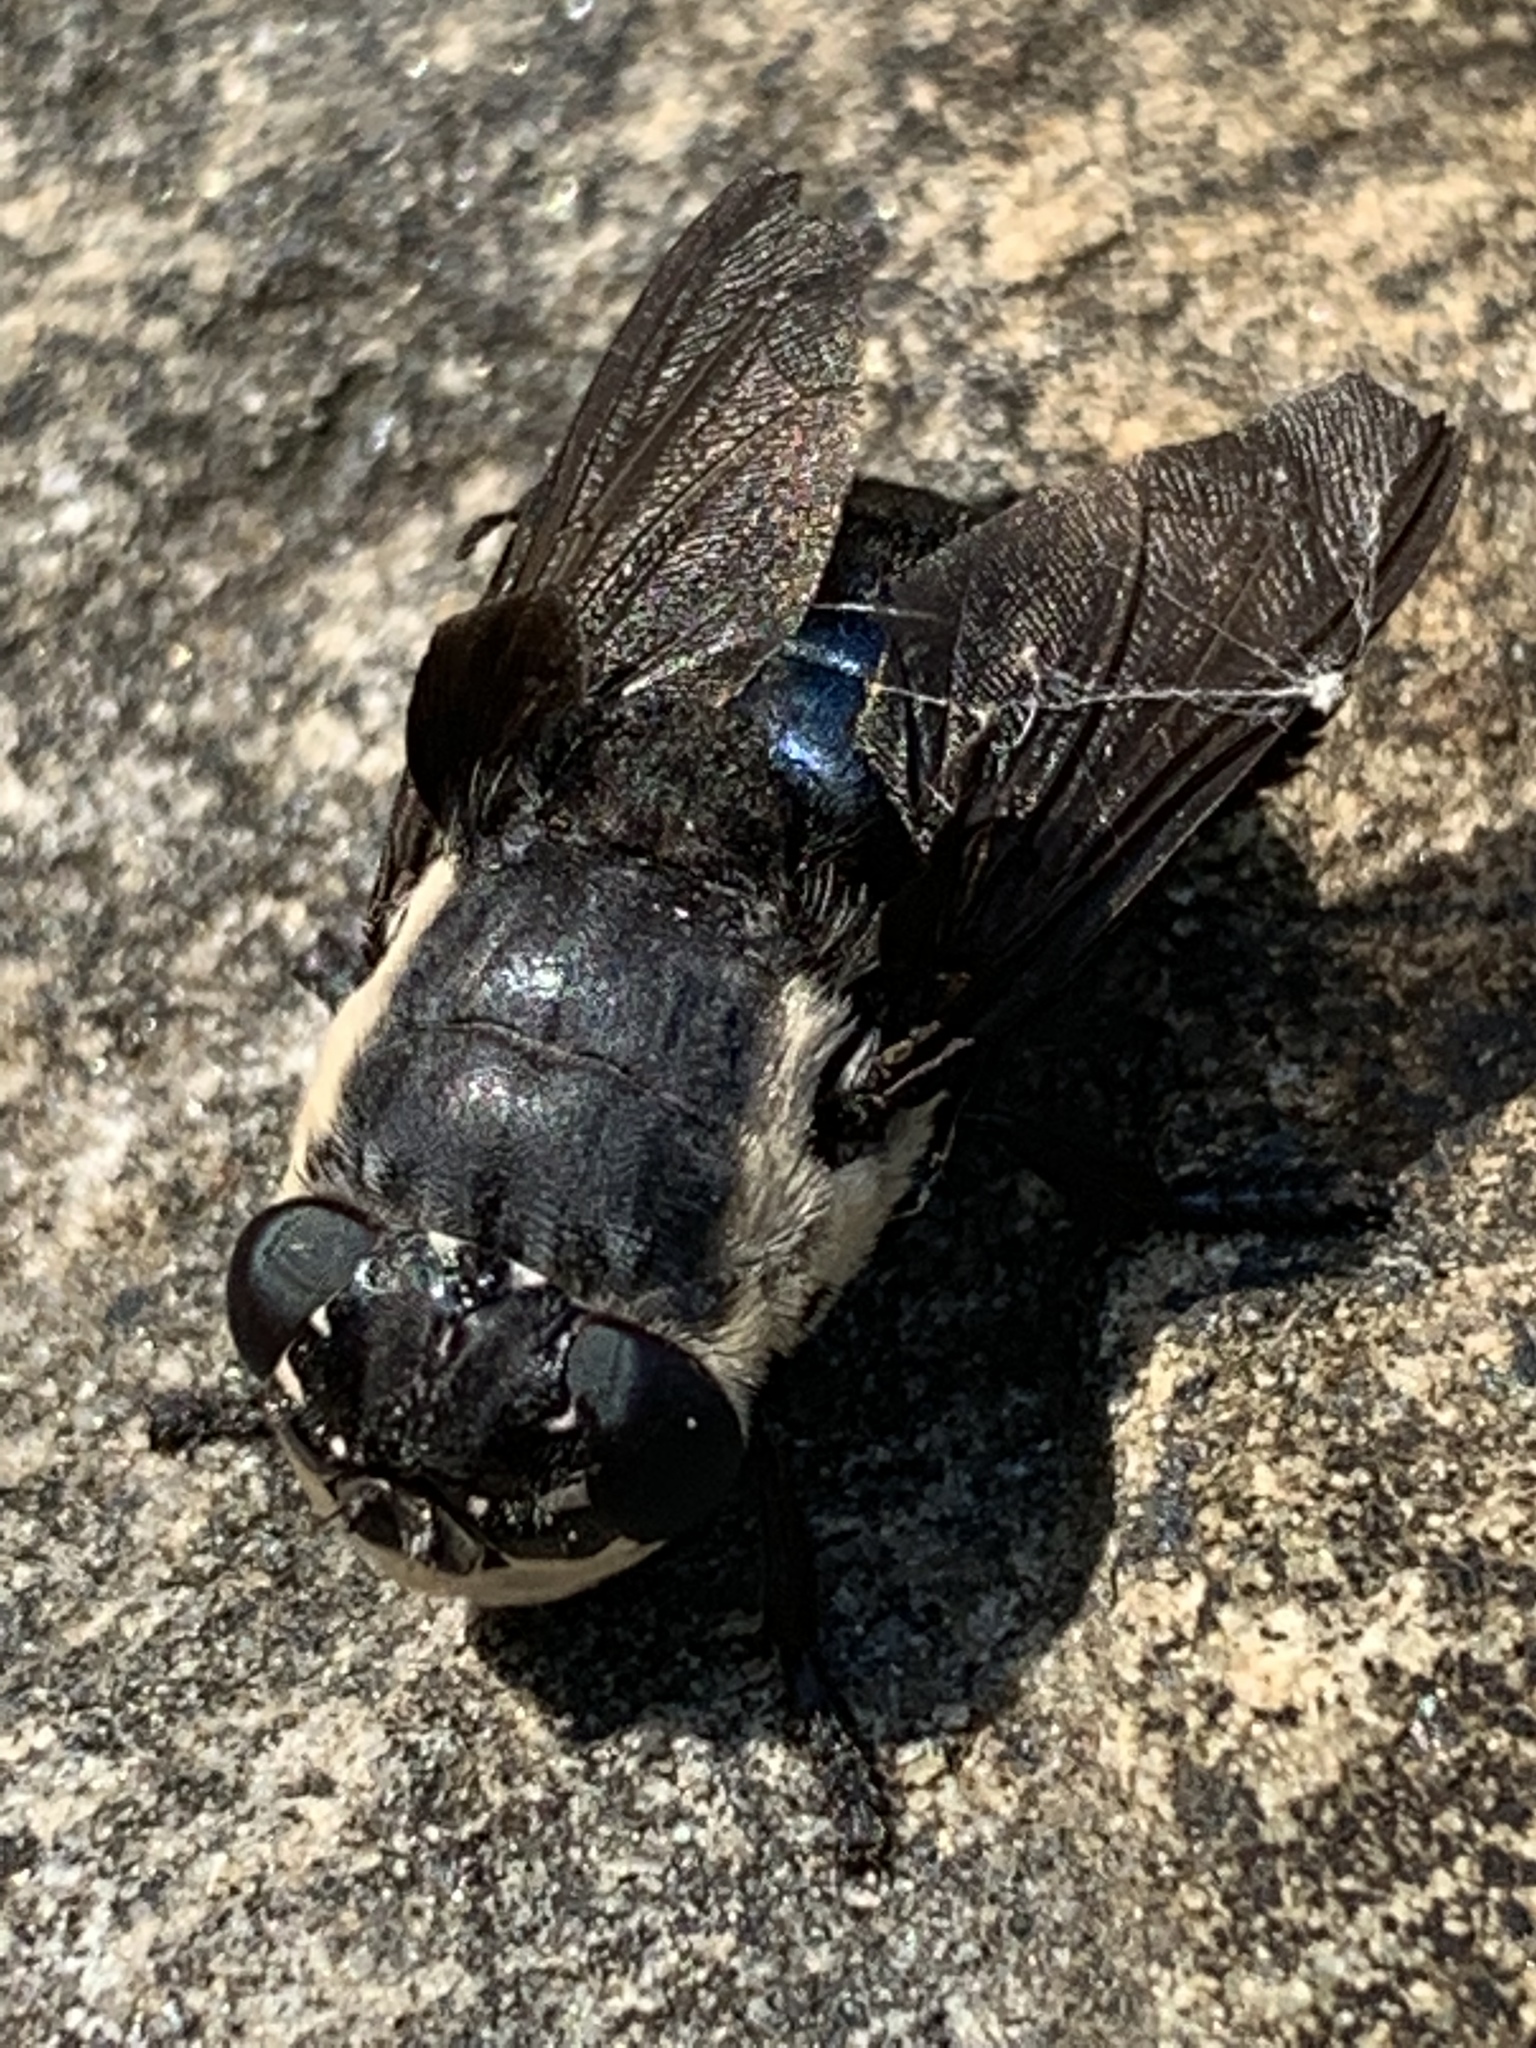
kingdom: Animalia
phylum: Arthropoda
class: Insecta
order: Diptera
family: Oestridae
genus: Cuterebra
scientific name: Cuterebra fontinella
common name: Mouse bot fly
